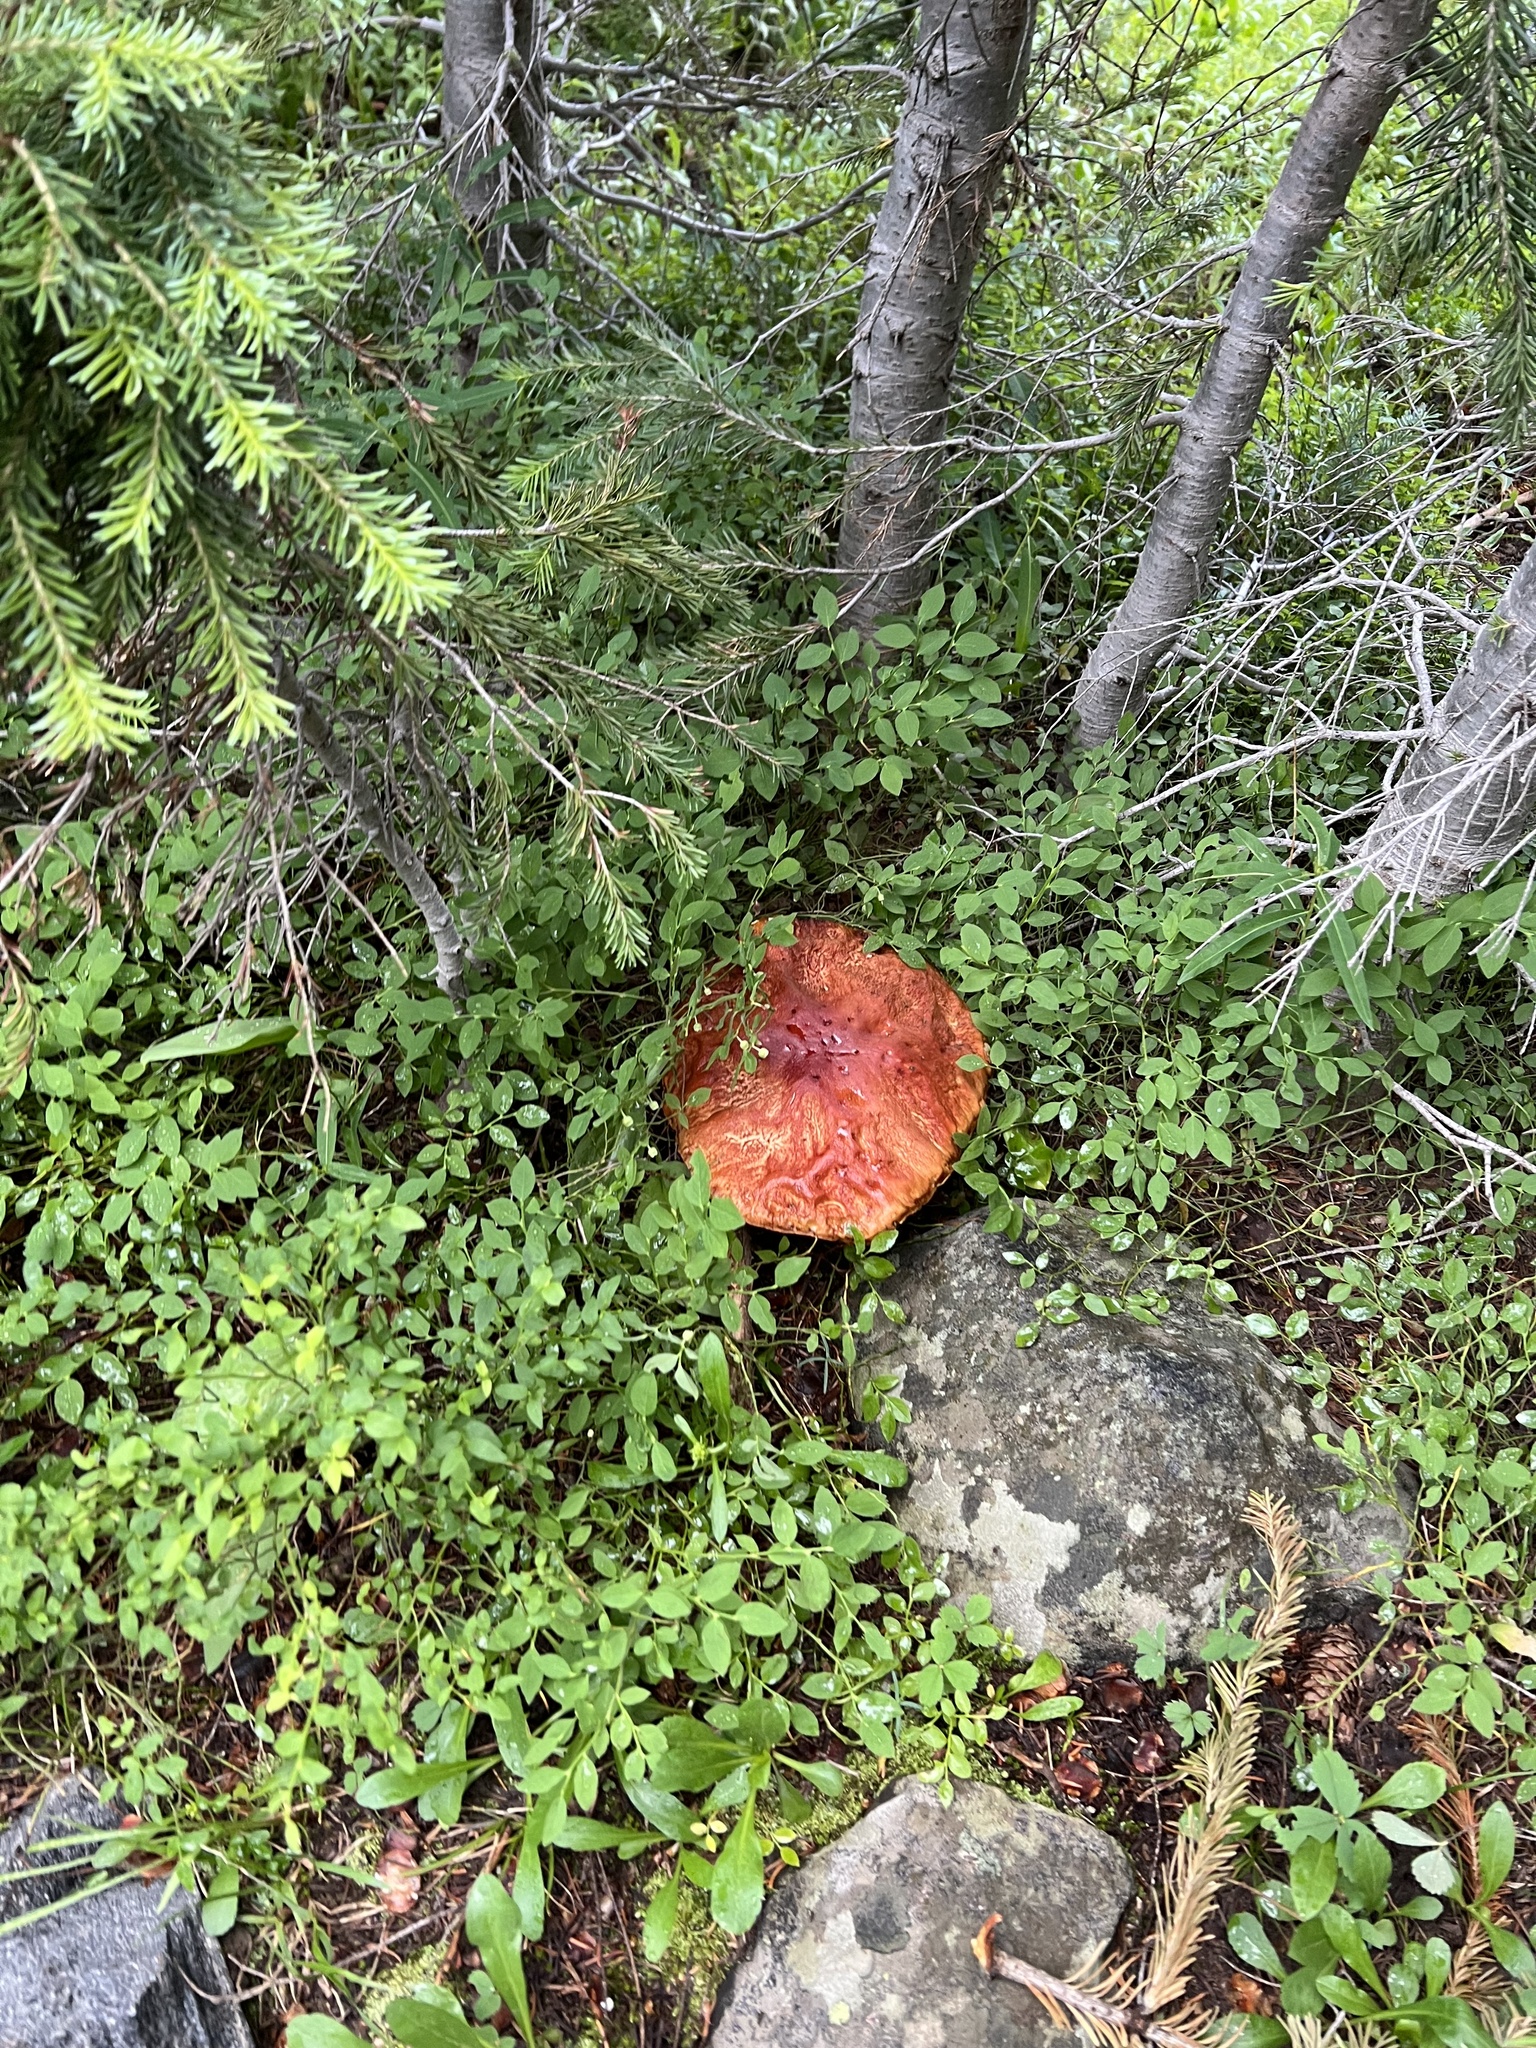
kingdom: Fungi
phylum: Basidiomycota
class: Agaricomycetes
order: Boletales
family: Boletaceae
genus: Boletus
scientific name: Boletus rubriceps
